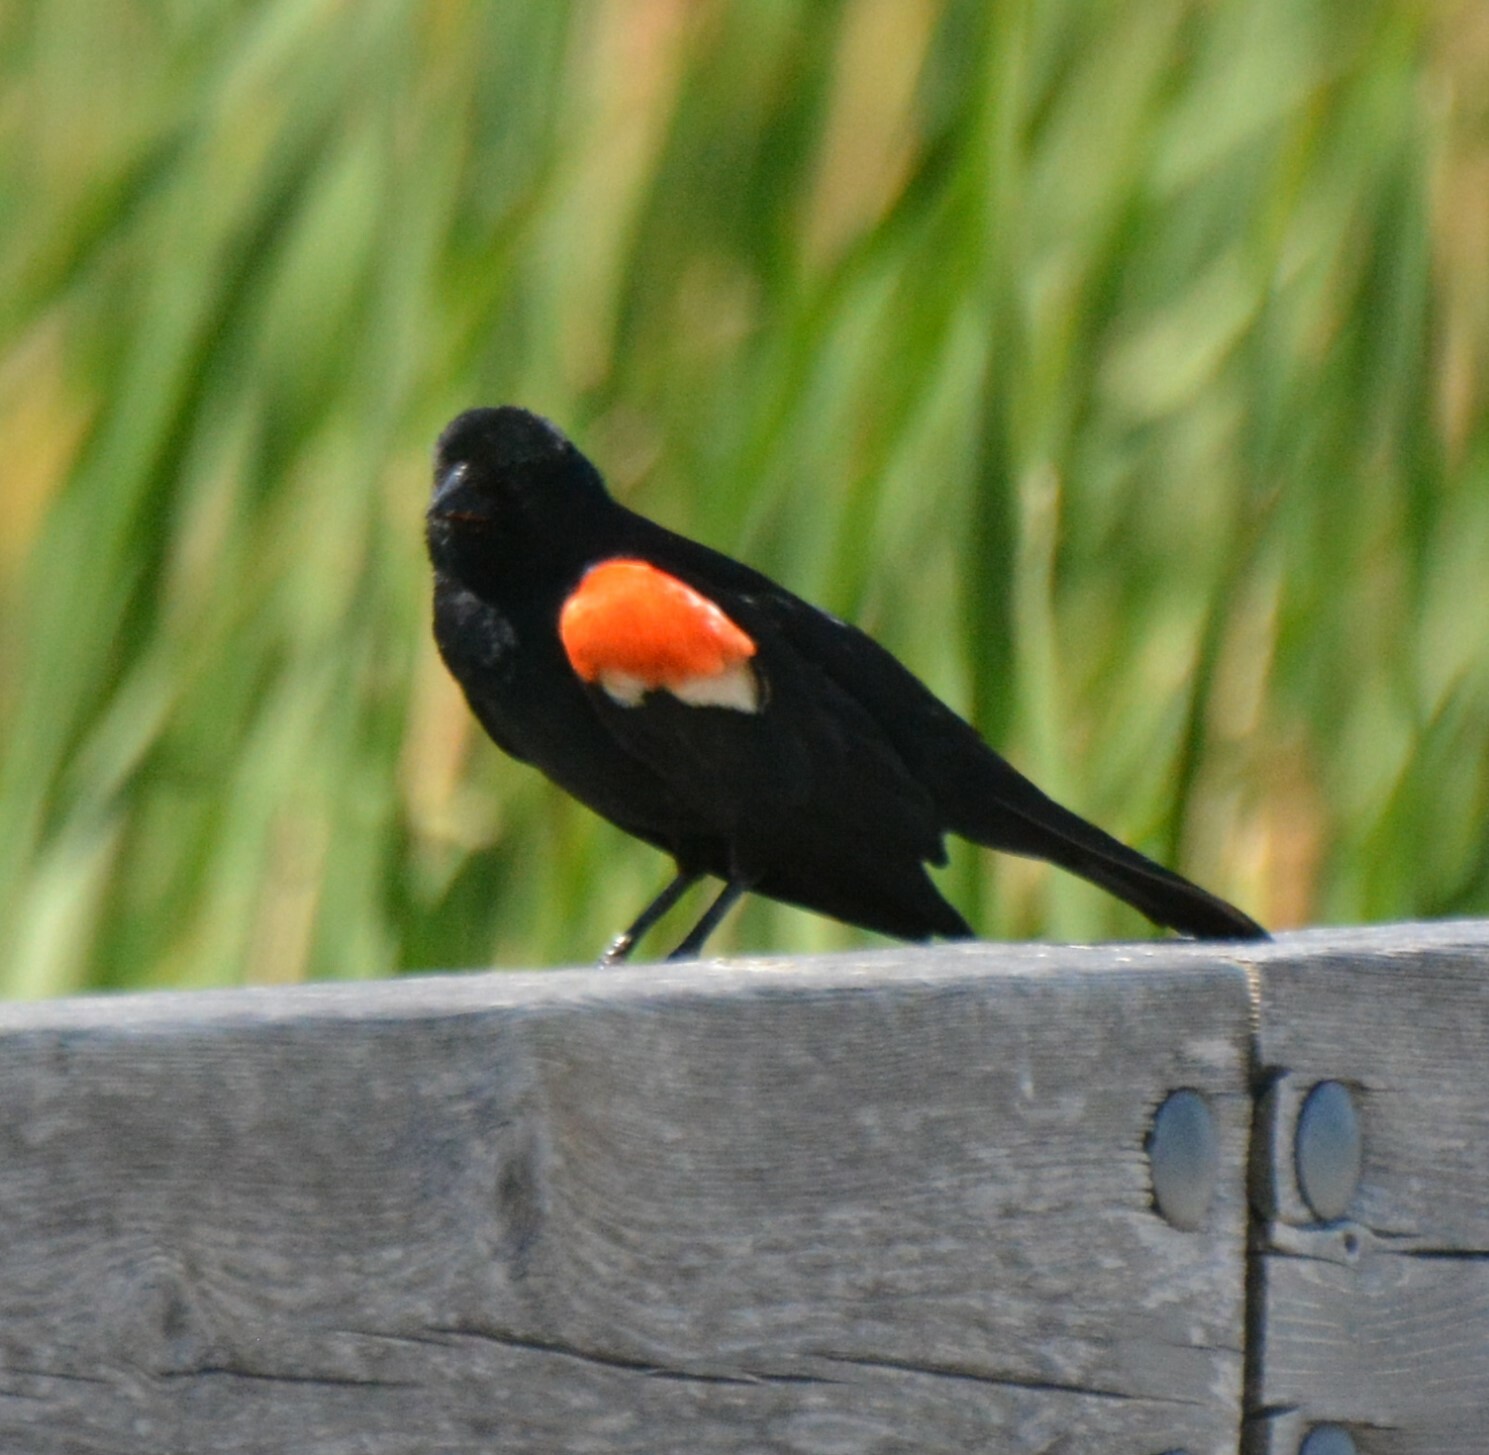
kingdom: Animalia
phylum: Chordata
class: Aves
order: Passeriformes
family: Icteridae
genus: Agelaius
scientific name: Agelaius phoeniceus
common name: Red-winged blackbird
